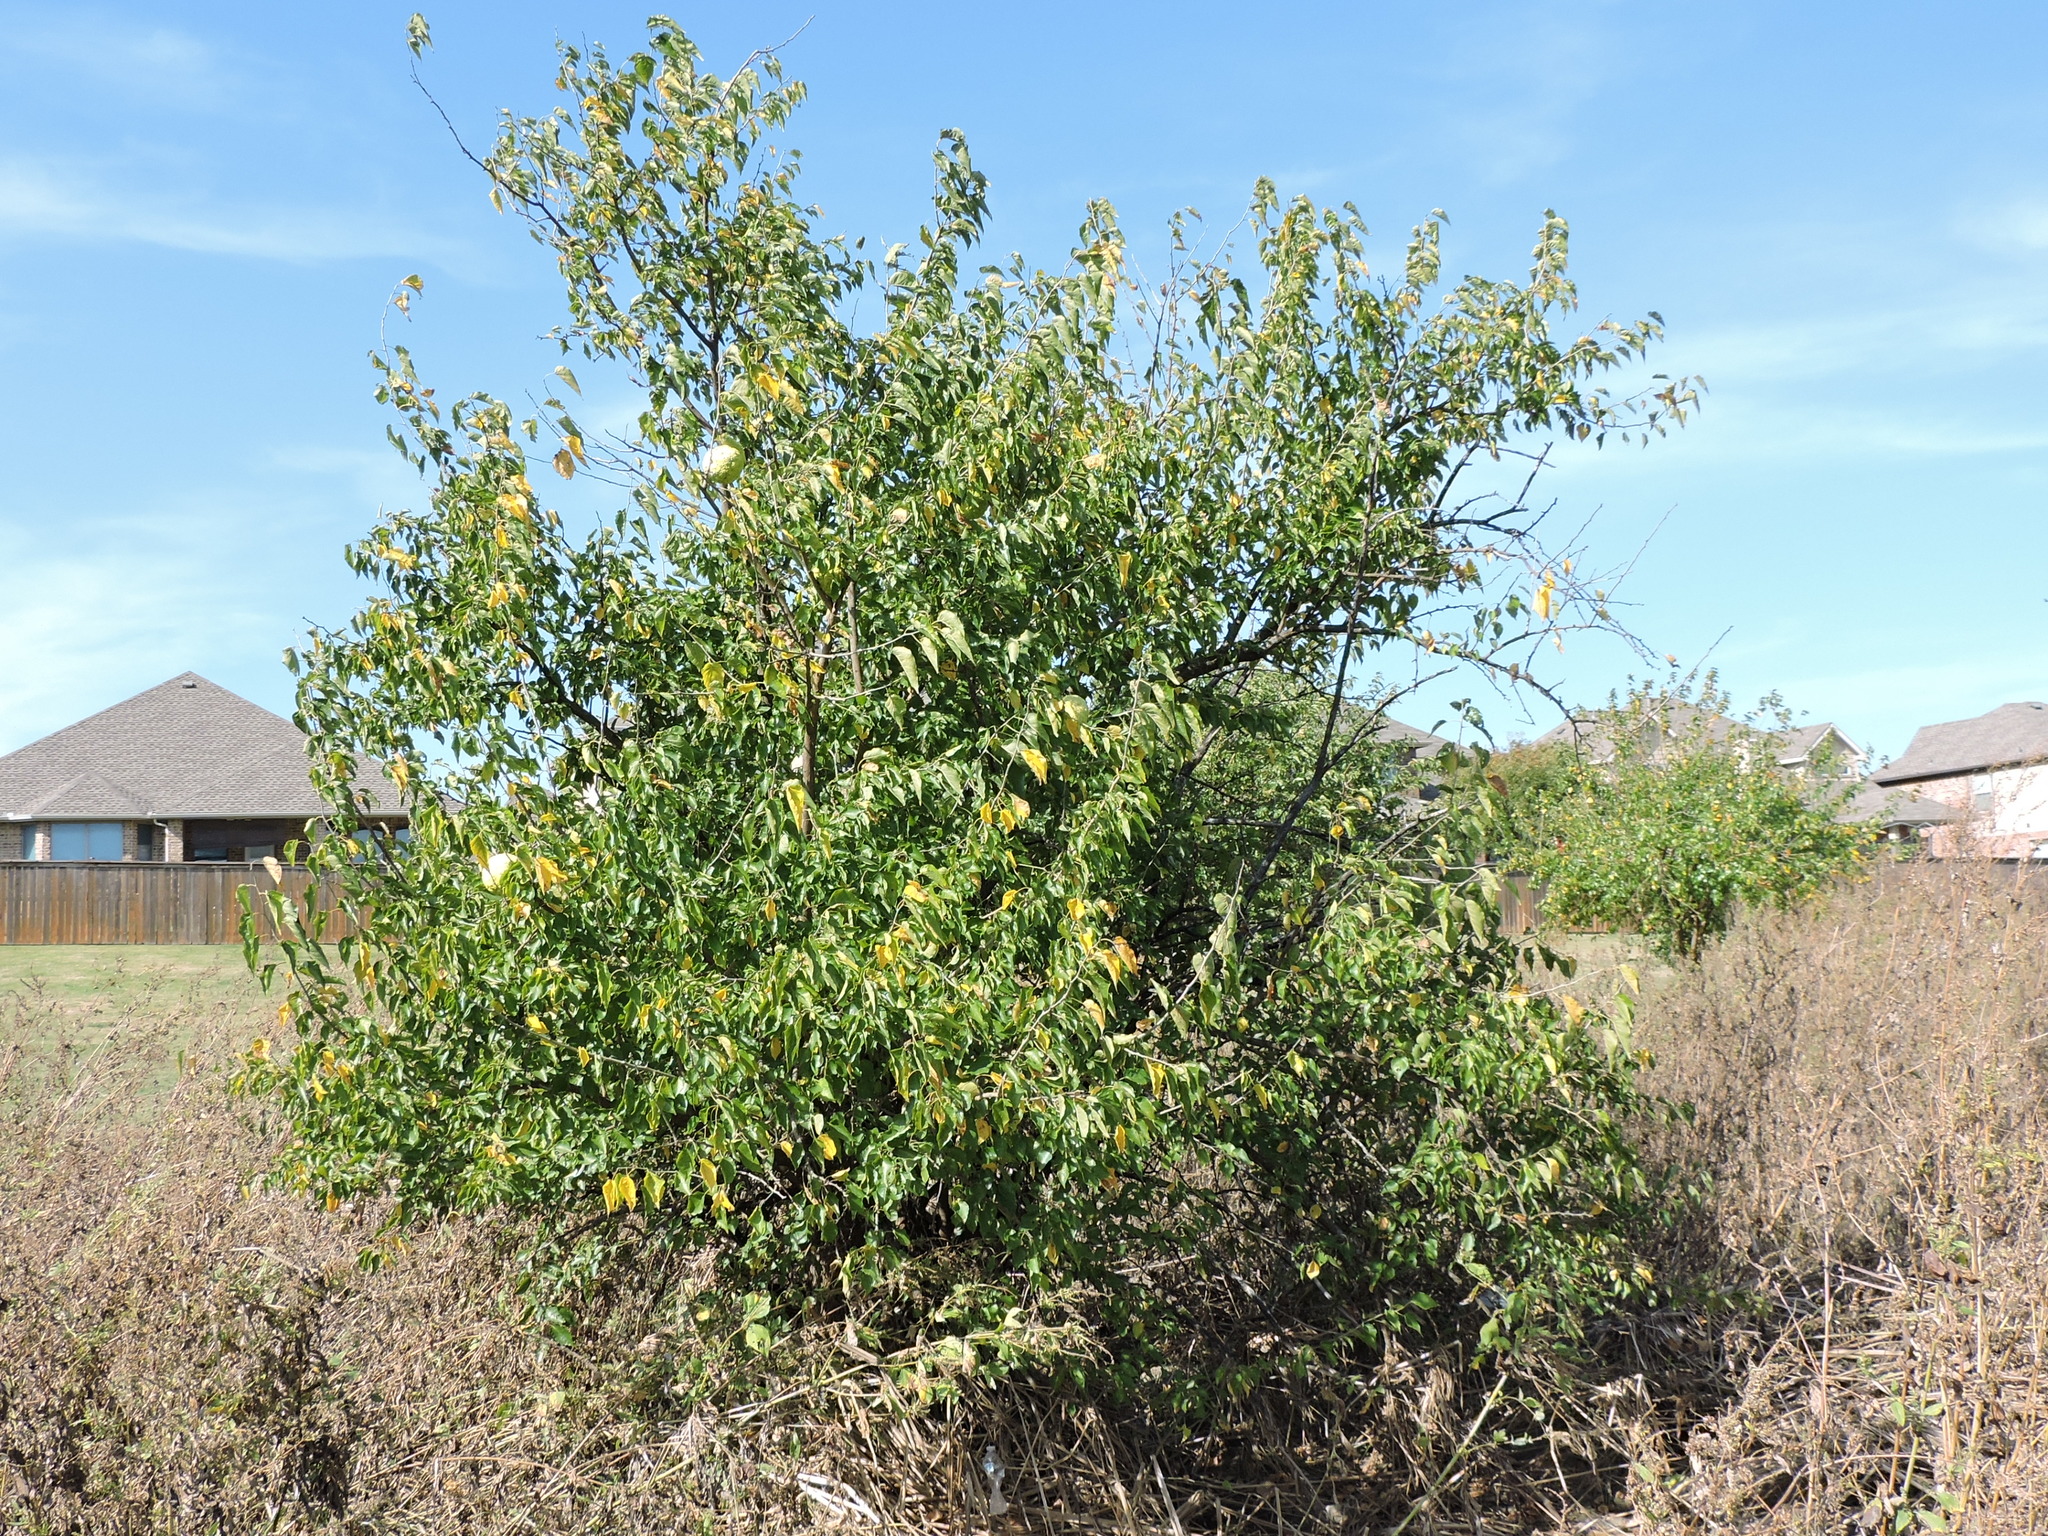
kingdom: Plantae
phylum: Tracheophyta
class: Magnoliopsida
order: Rosales
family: Moraceae
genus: Maclura
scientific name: Maclura pomifera
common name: Osage-orange
